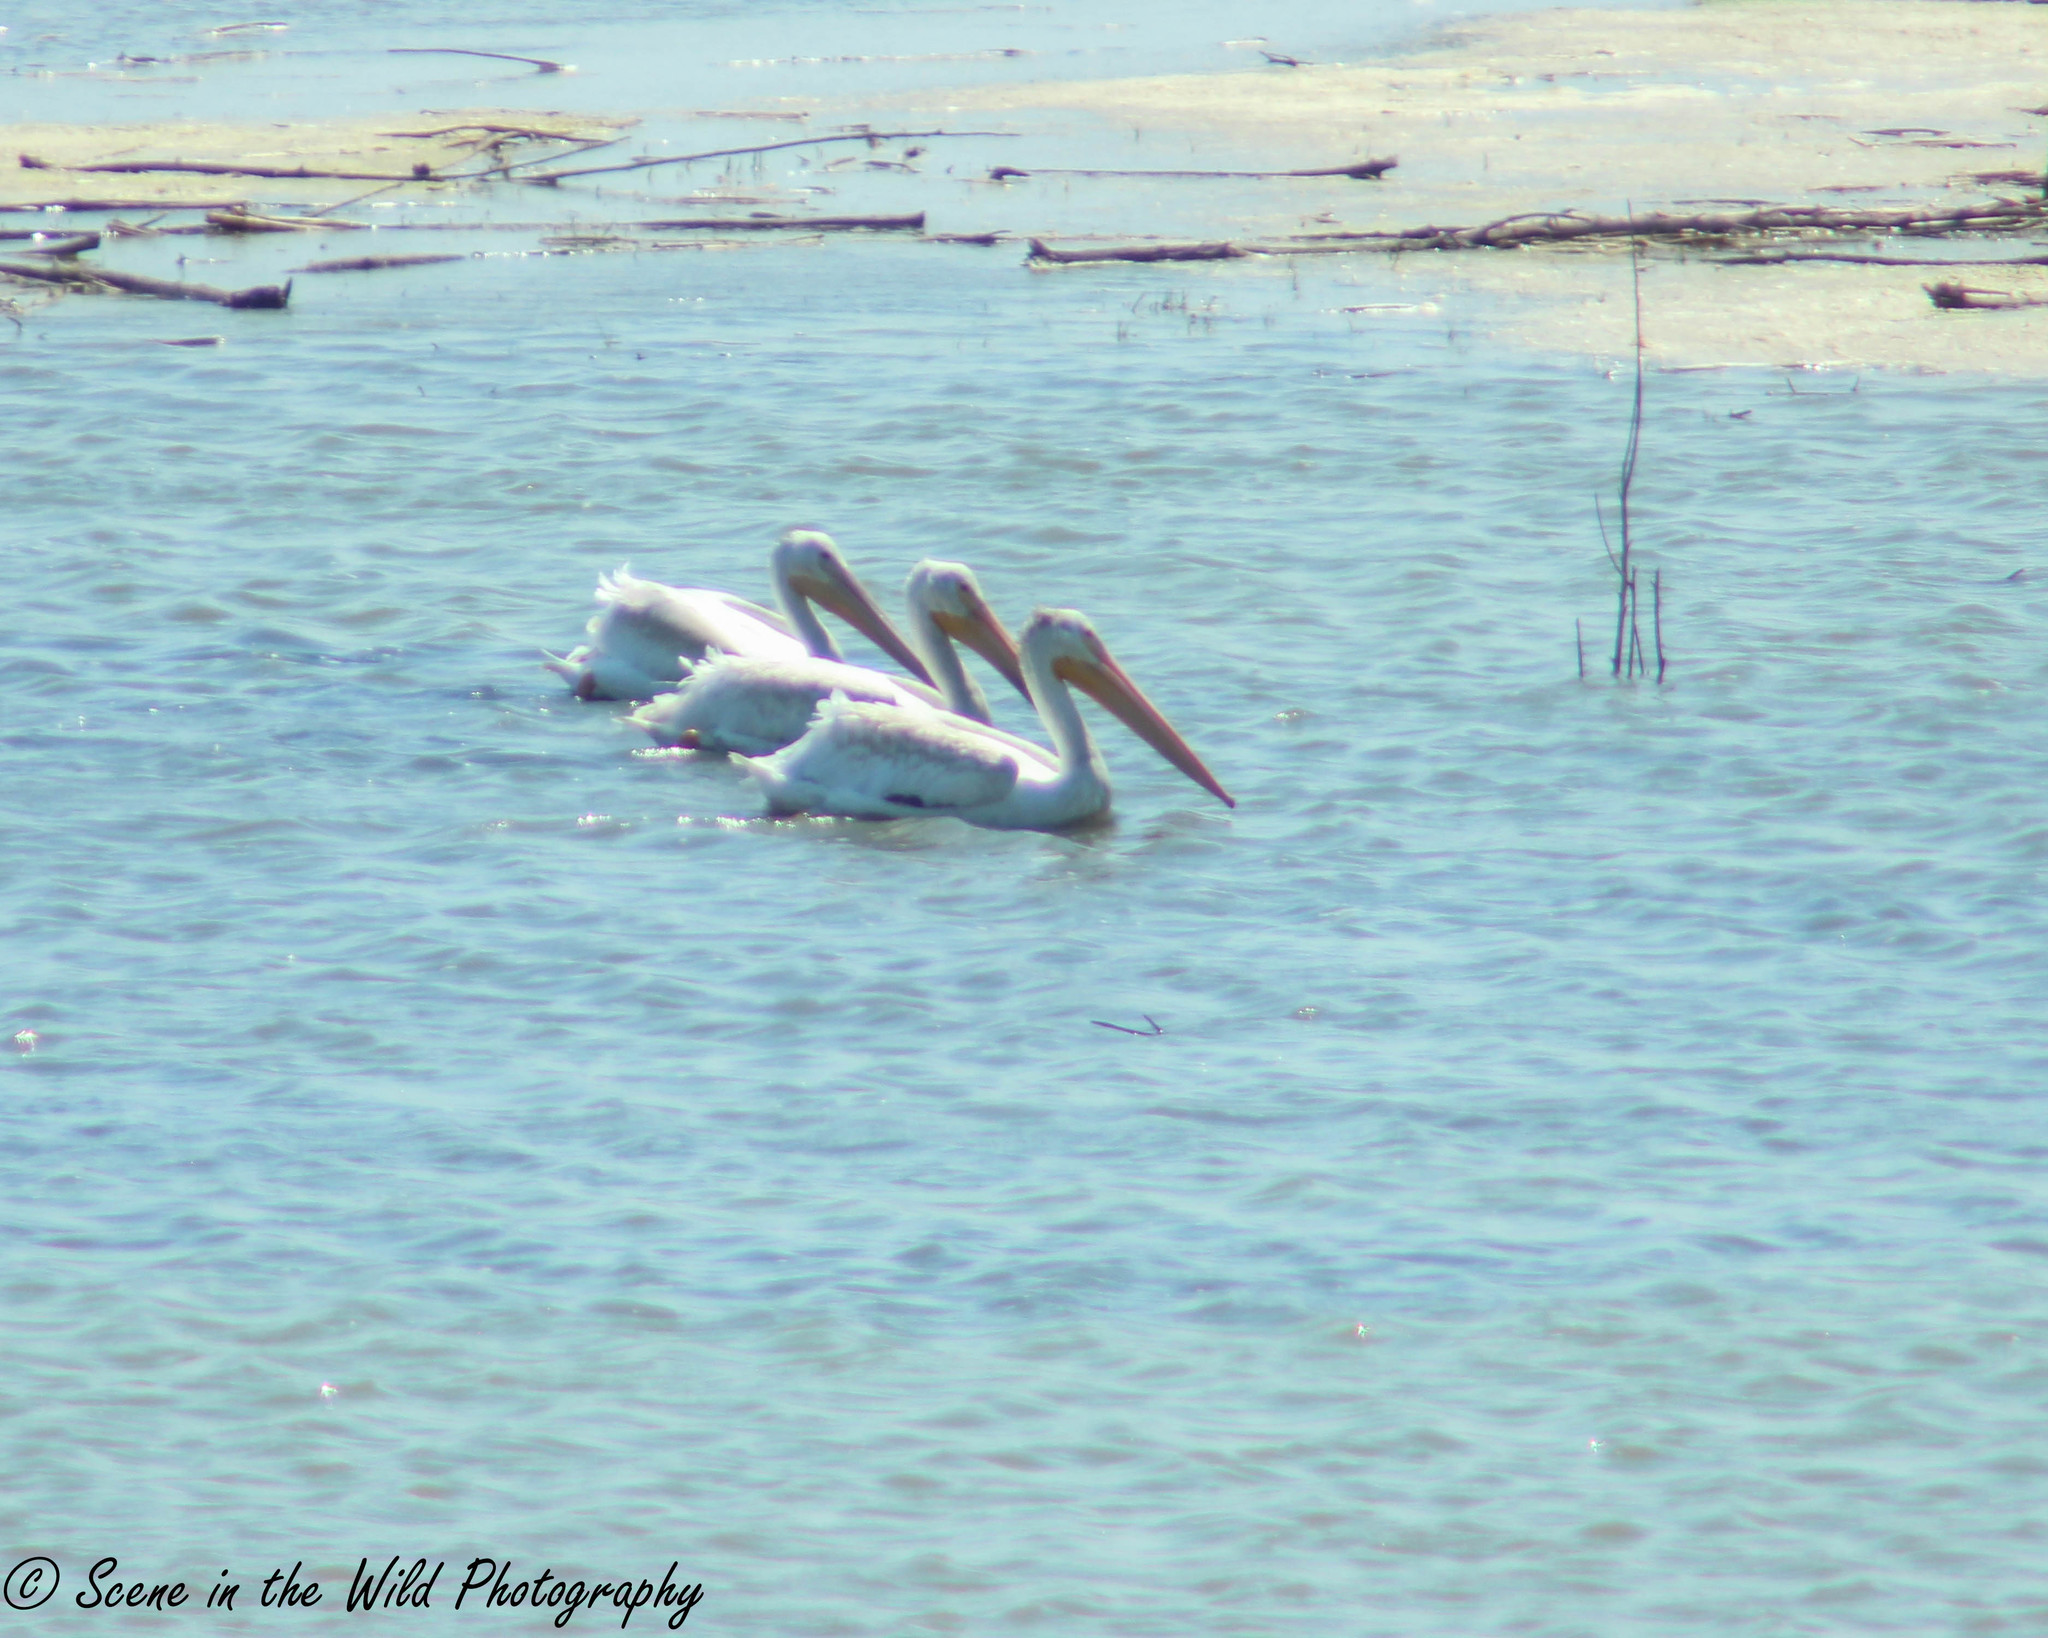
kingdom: Animalia
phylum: Chordata
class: Aves
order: Pelecaniformes
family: Pelecanidae
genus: Pelecanus
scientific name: Pelecanus erythrorhynchos
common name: American white pelican
